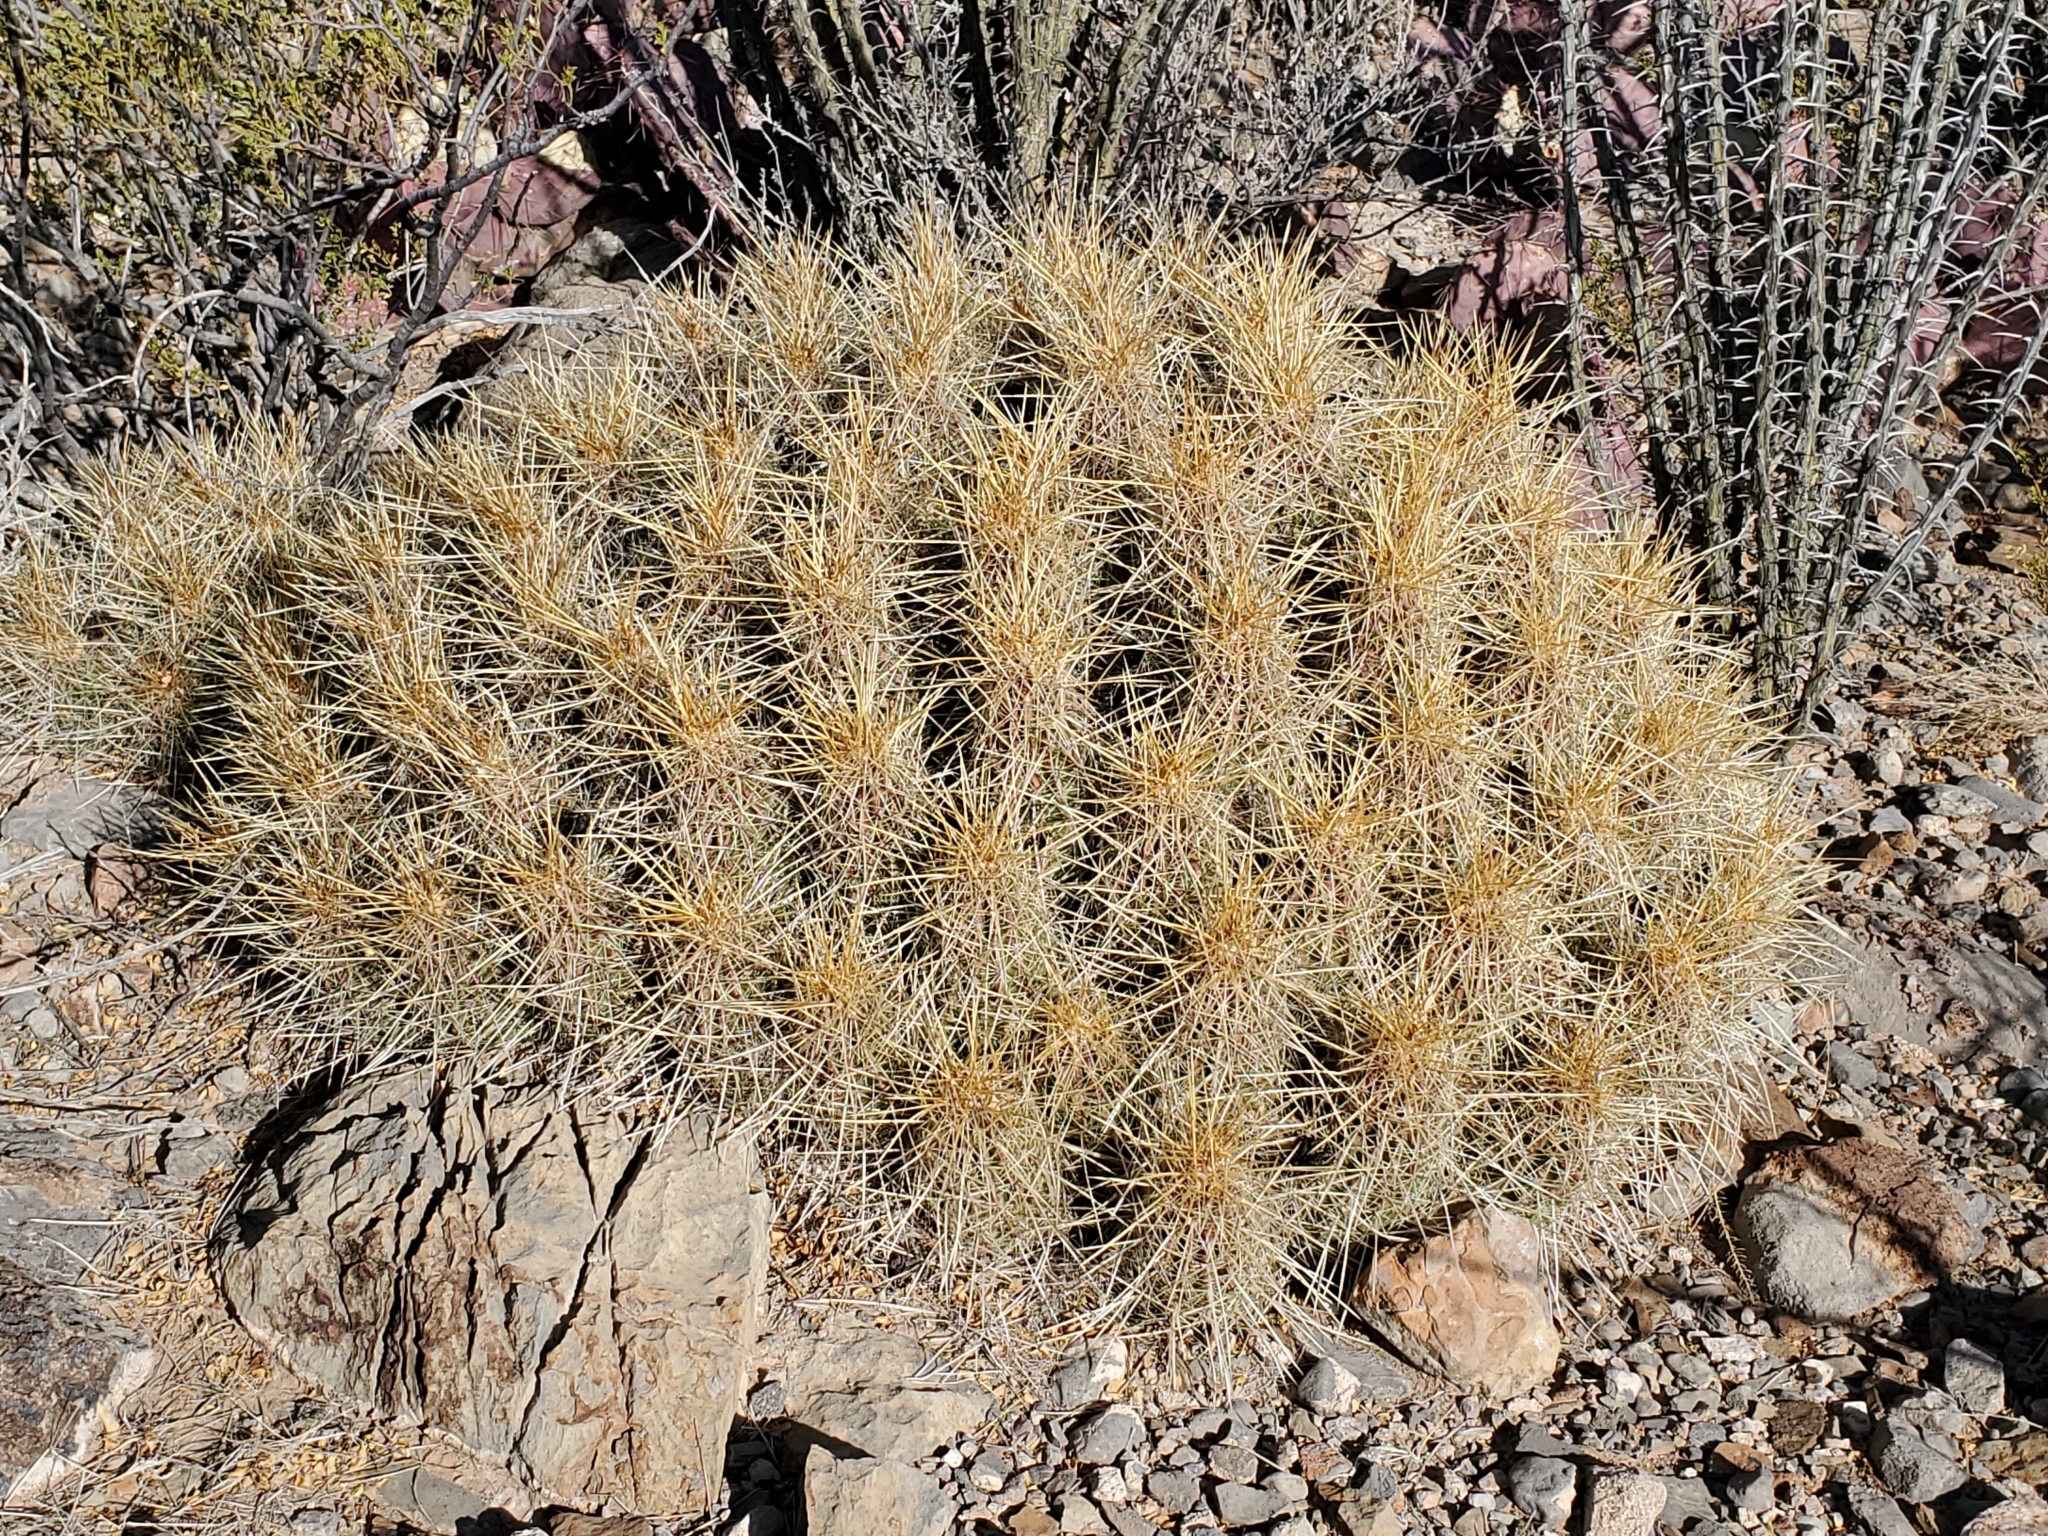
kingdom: Plantae
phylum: Tracheophyta
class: Magnoliopsida
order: Caryophyllales
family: Cactaceae
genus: Echinocereus
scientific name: Echinocereus stramineus
